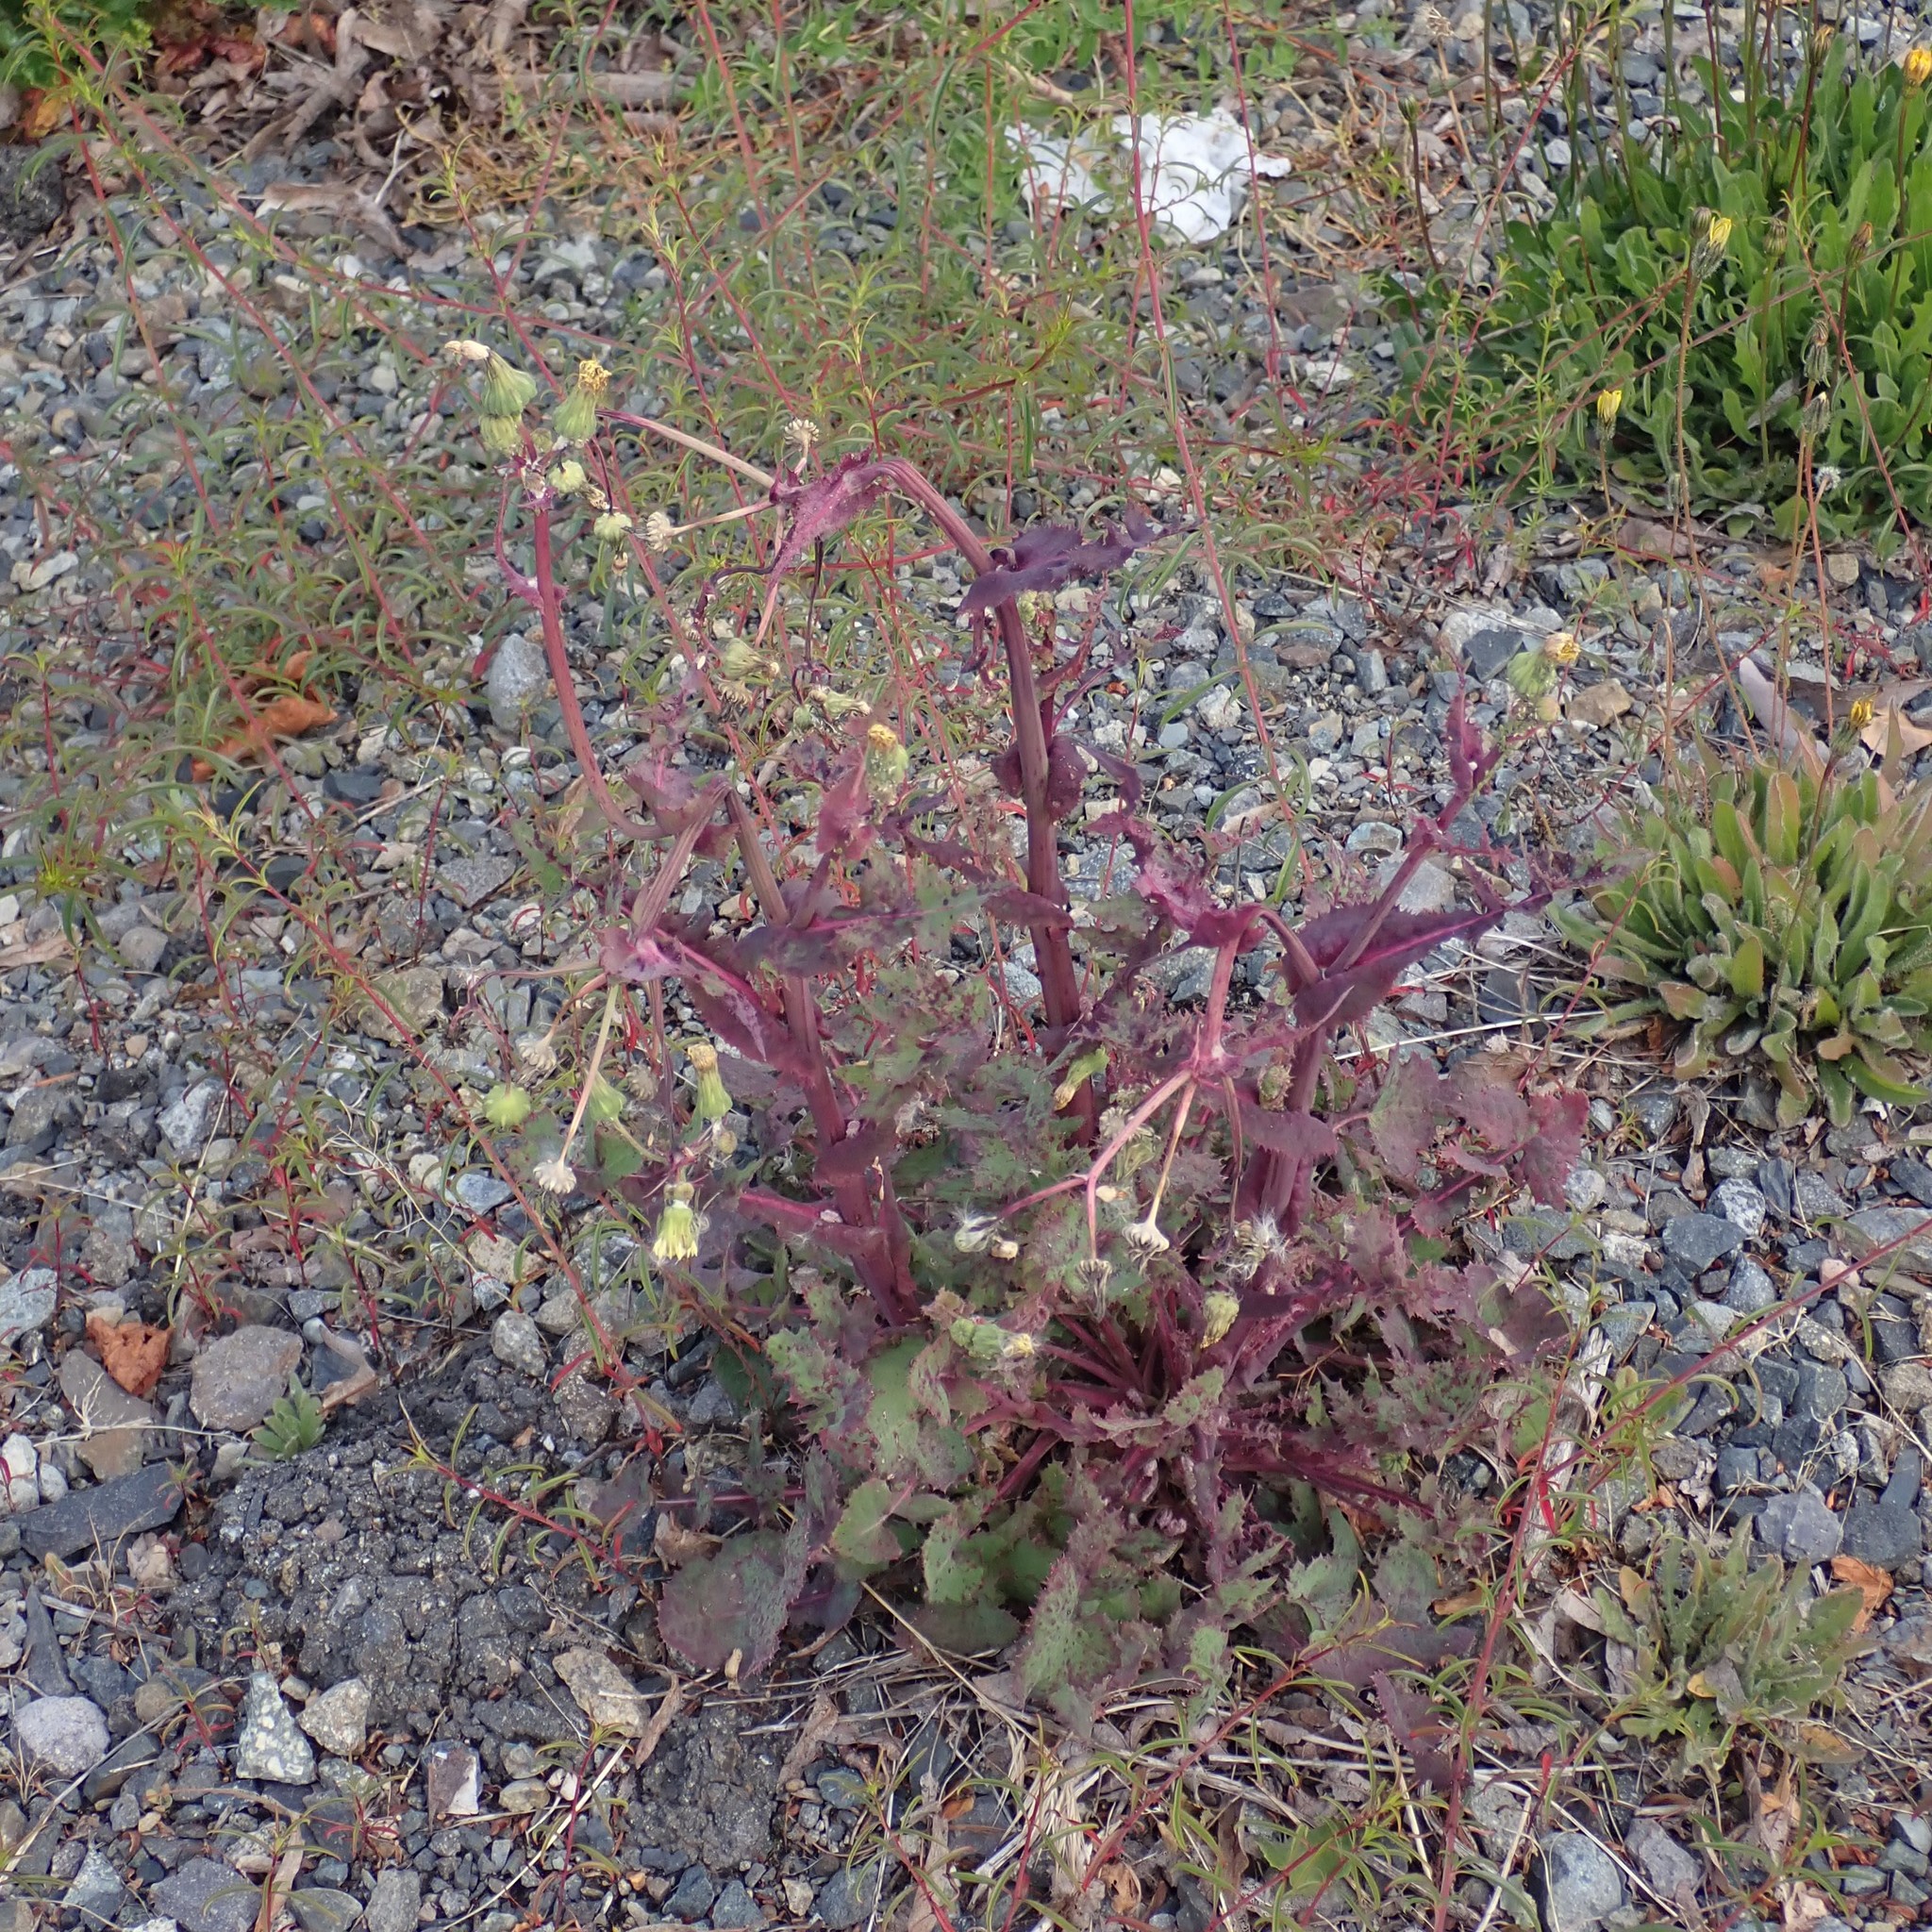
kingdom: Plantae
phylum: Tracheophyta
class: Magnoliopsida
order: Asterales
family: Asteraceae
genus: Sonchus
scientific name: Sonchus oleraceus
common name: Common sowthistle
